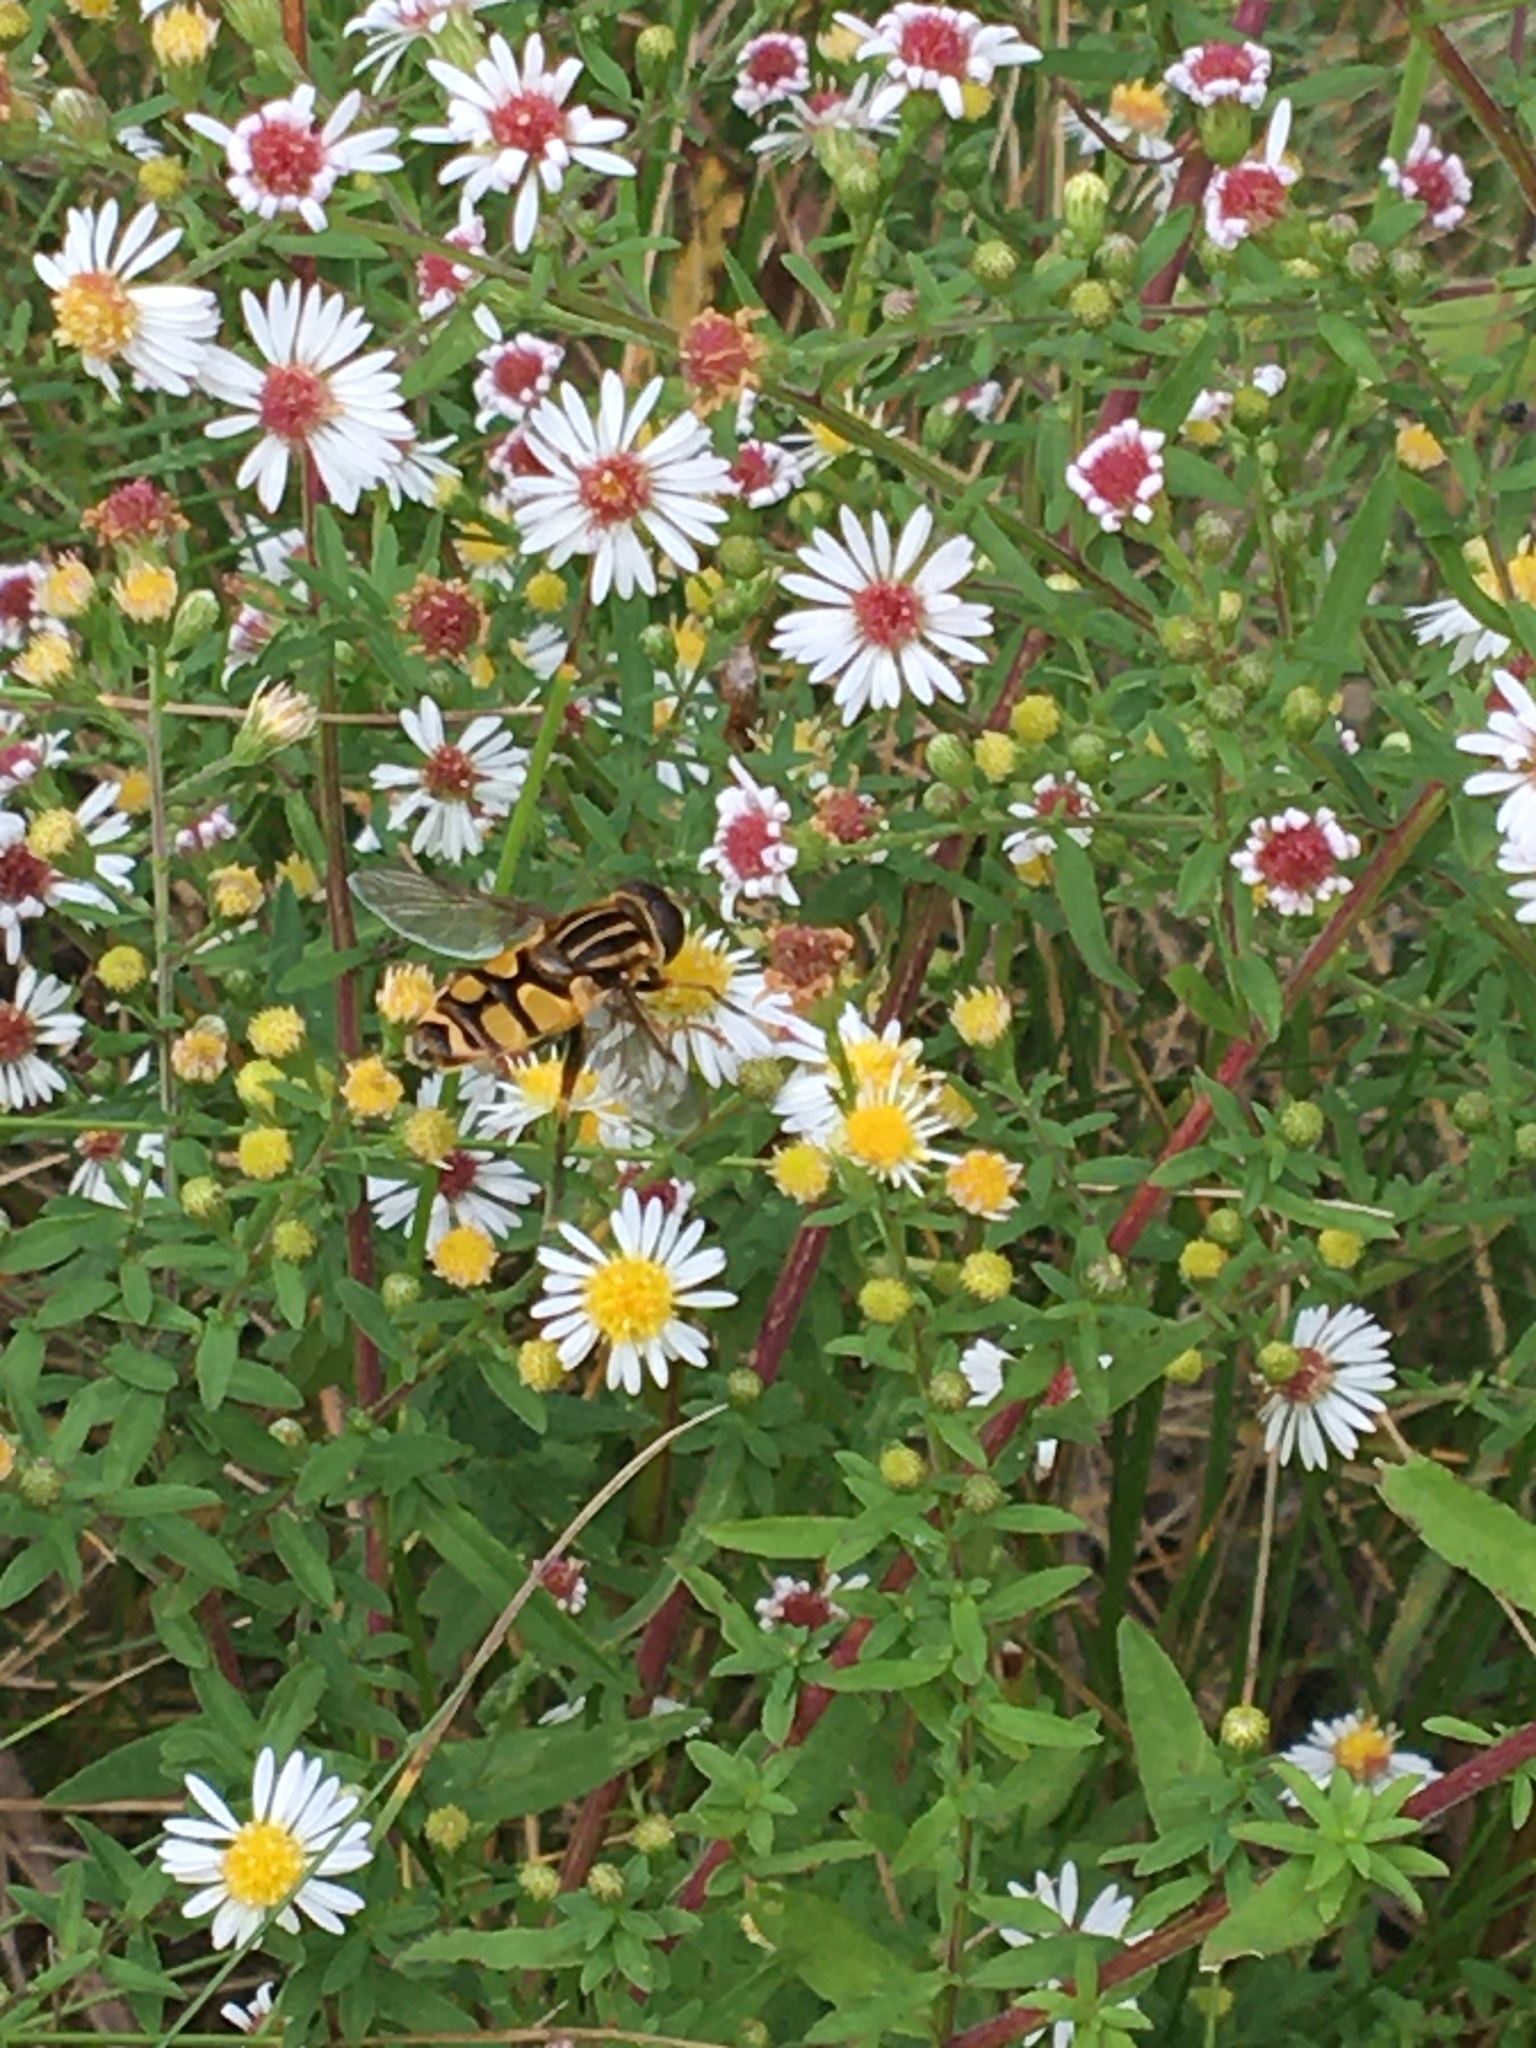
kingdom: Animalia
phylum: Arthropoda
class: Insecta
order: Diptera
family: Syrphidae
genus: Helophilus
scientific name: Helophilus fasciatus
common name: Narrow-headed marsh fly
